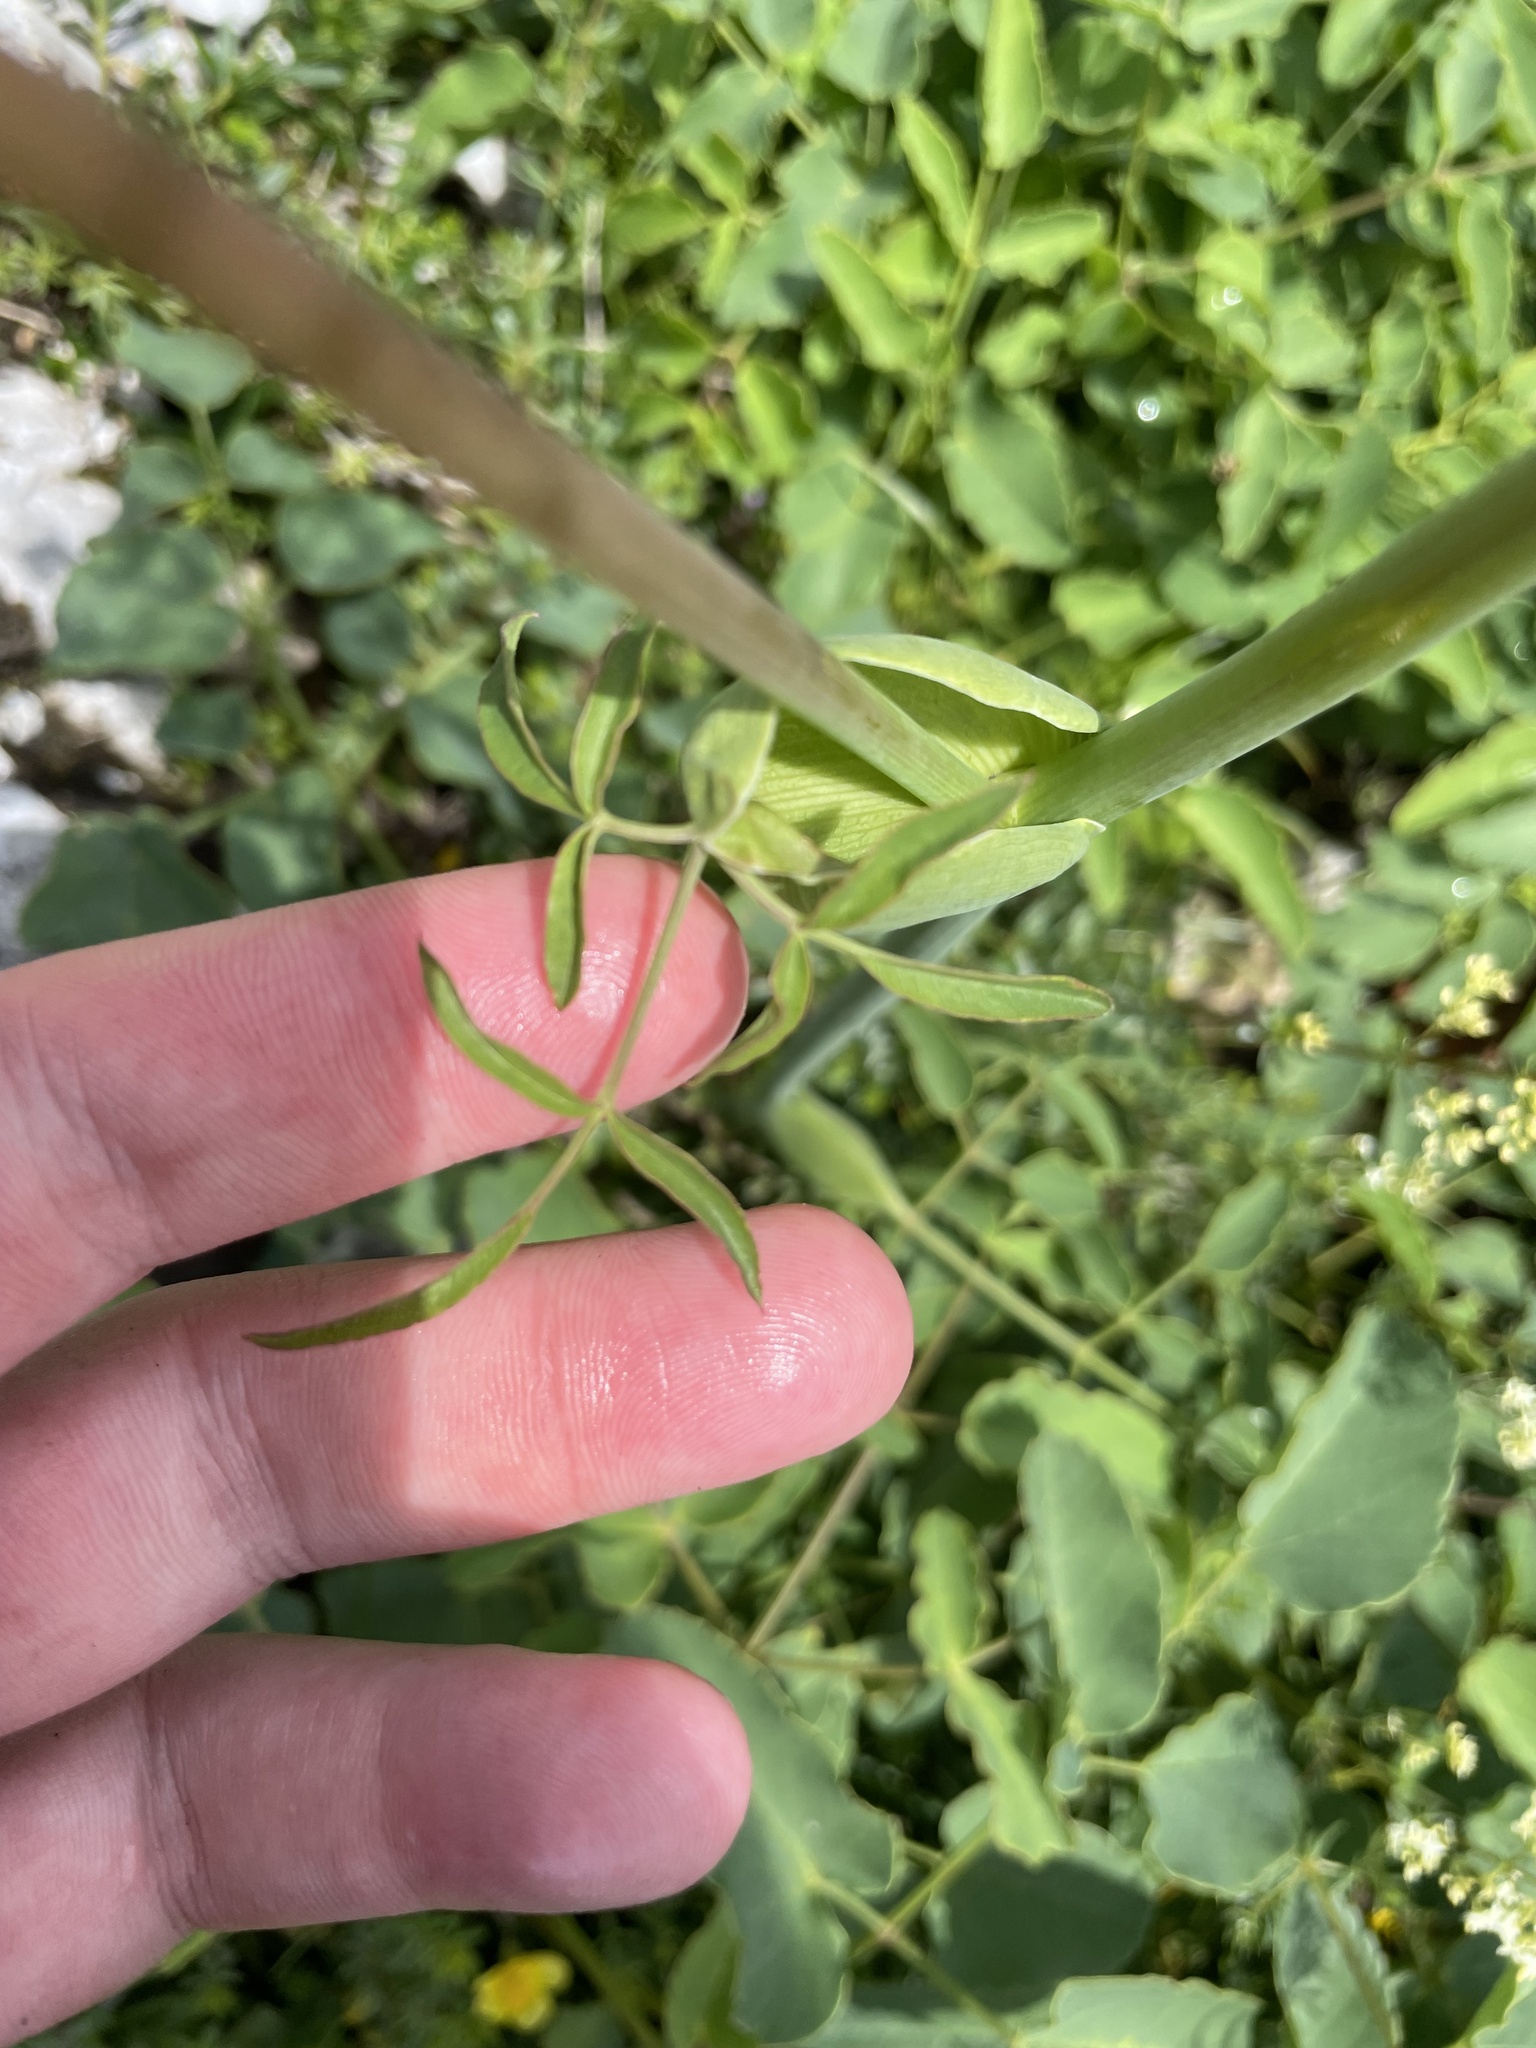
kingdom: Plantae
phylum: Tracheophyta
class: Magnoliopsida
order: Apiales
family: Apiaceae
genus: Laserpitium
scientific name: Laserpitium latifolium
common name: Broadleaf sermountain
